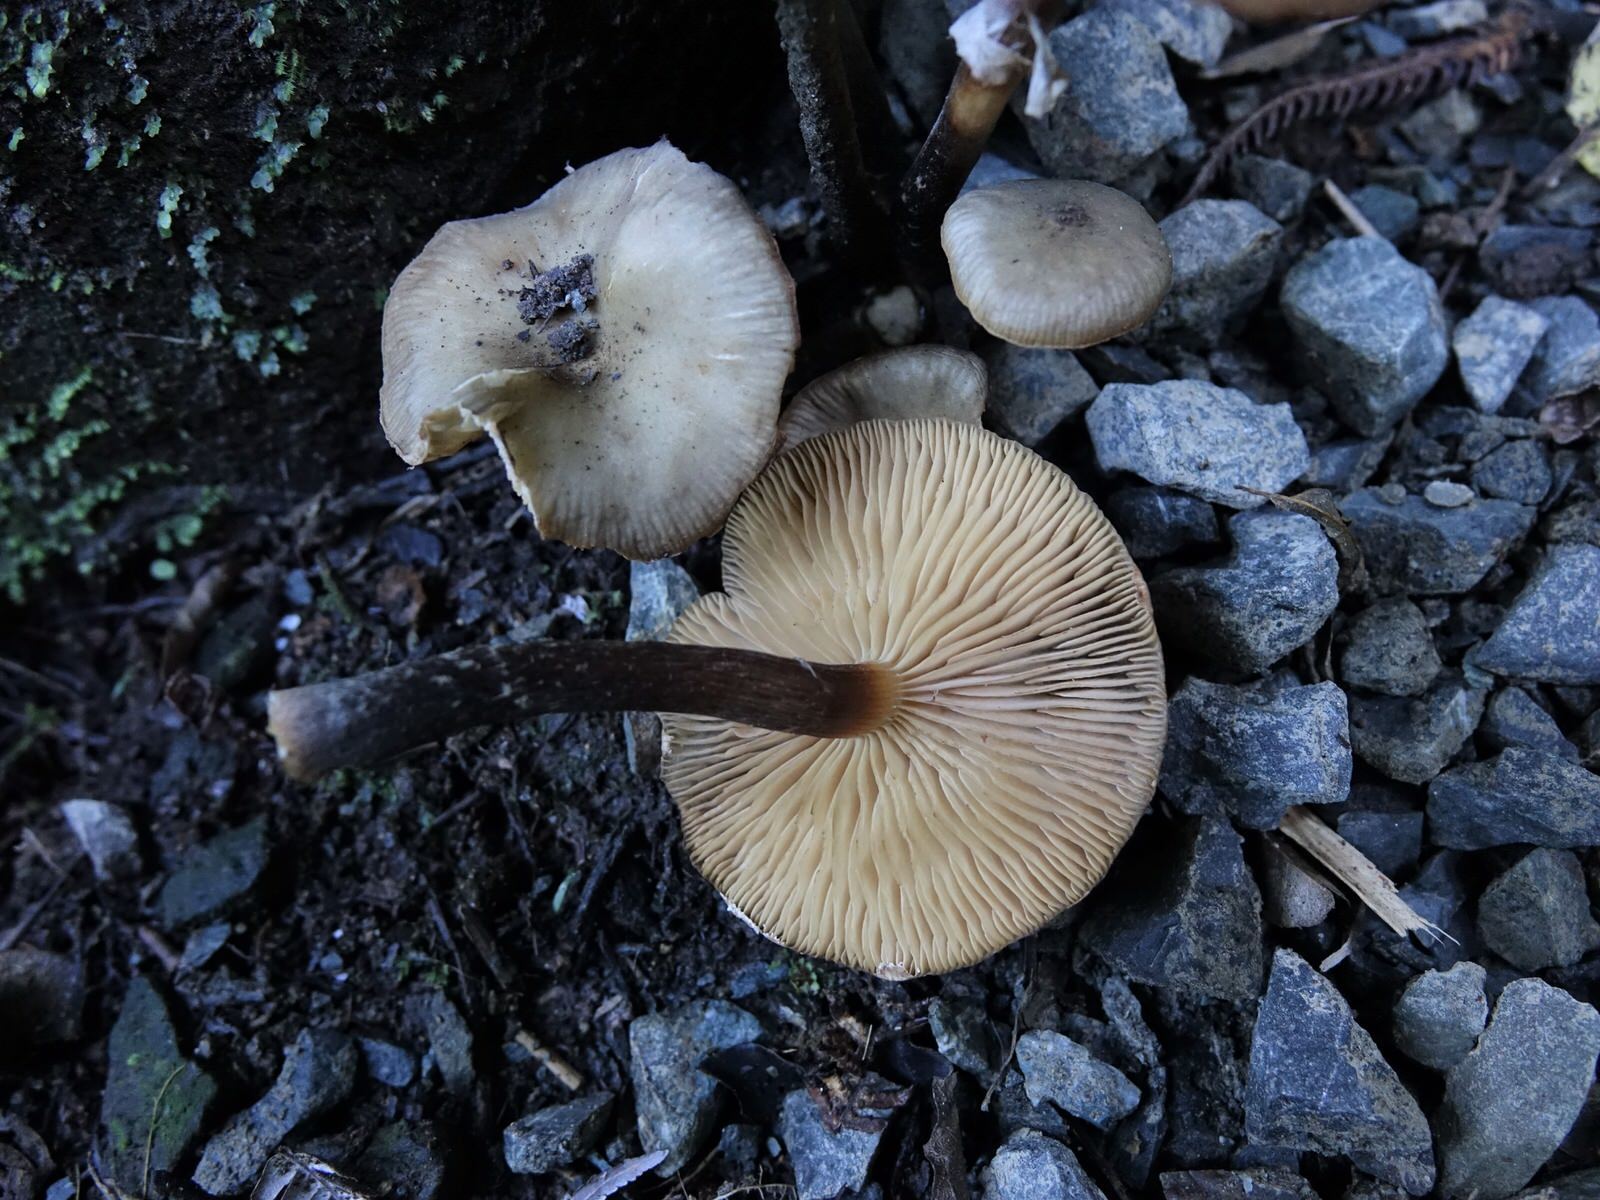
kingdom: Fungi
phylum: Basidiomycota
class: Agaricomycetes
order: Agaricales
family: Physalacriaceae
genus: Armillaria
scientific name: Armillaria novae-zelandiae
